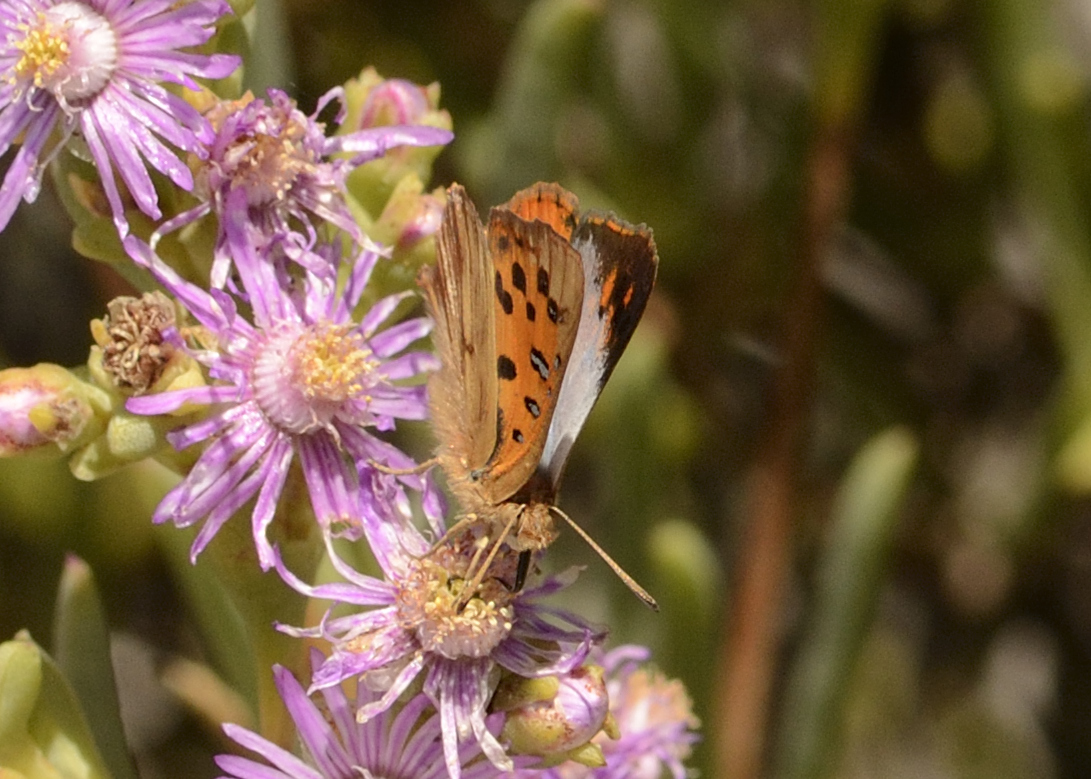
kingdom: Animalia
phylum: Arthropoda
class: Insecta
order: Lepidoptera
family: Lycaenidae
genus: Chrysoritis
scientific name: Chrysoritis thysbe
